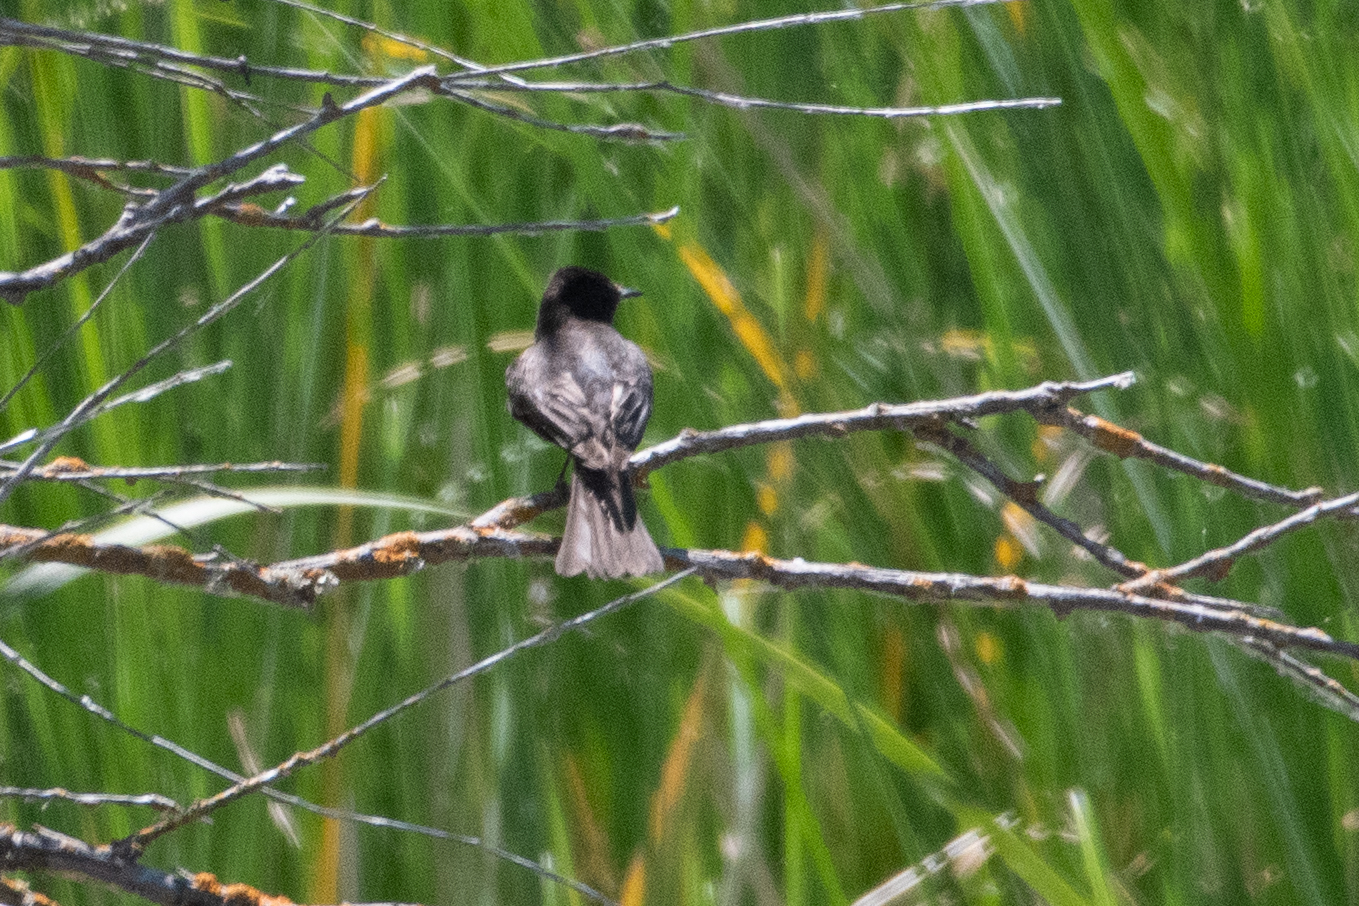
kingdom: Animalia
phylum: Chordata
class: Aves
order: Passeriformes
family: Tyrannidae
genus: Sayornis
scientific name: Sayornis nigricans
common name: Black phoebe
